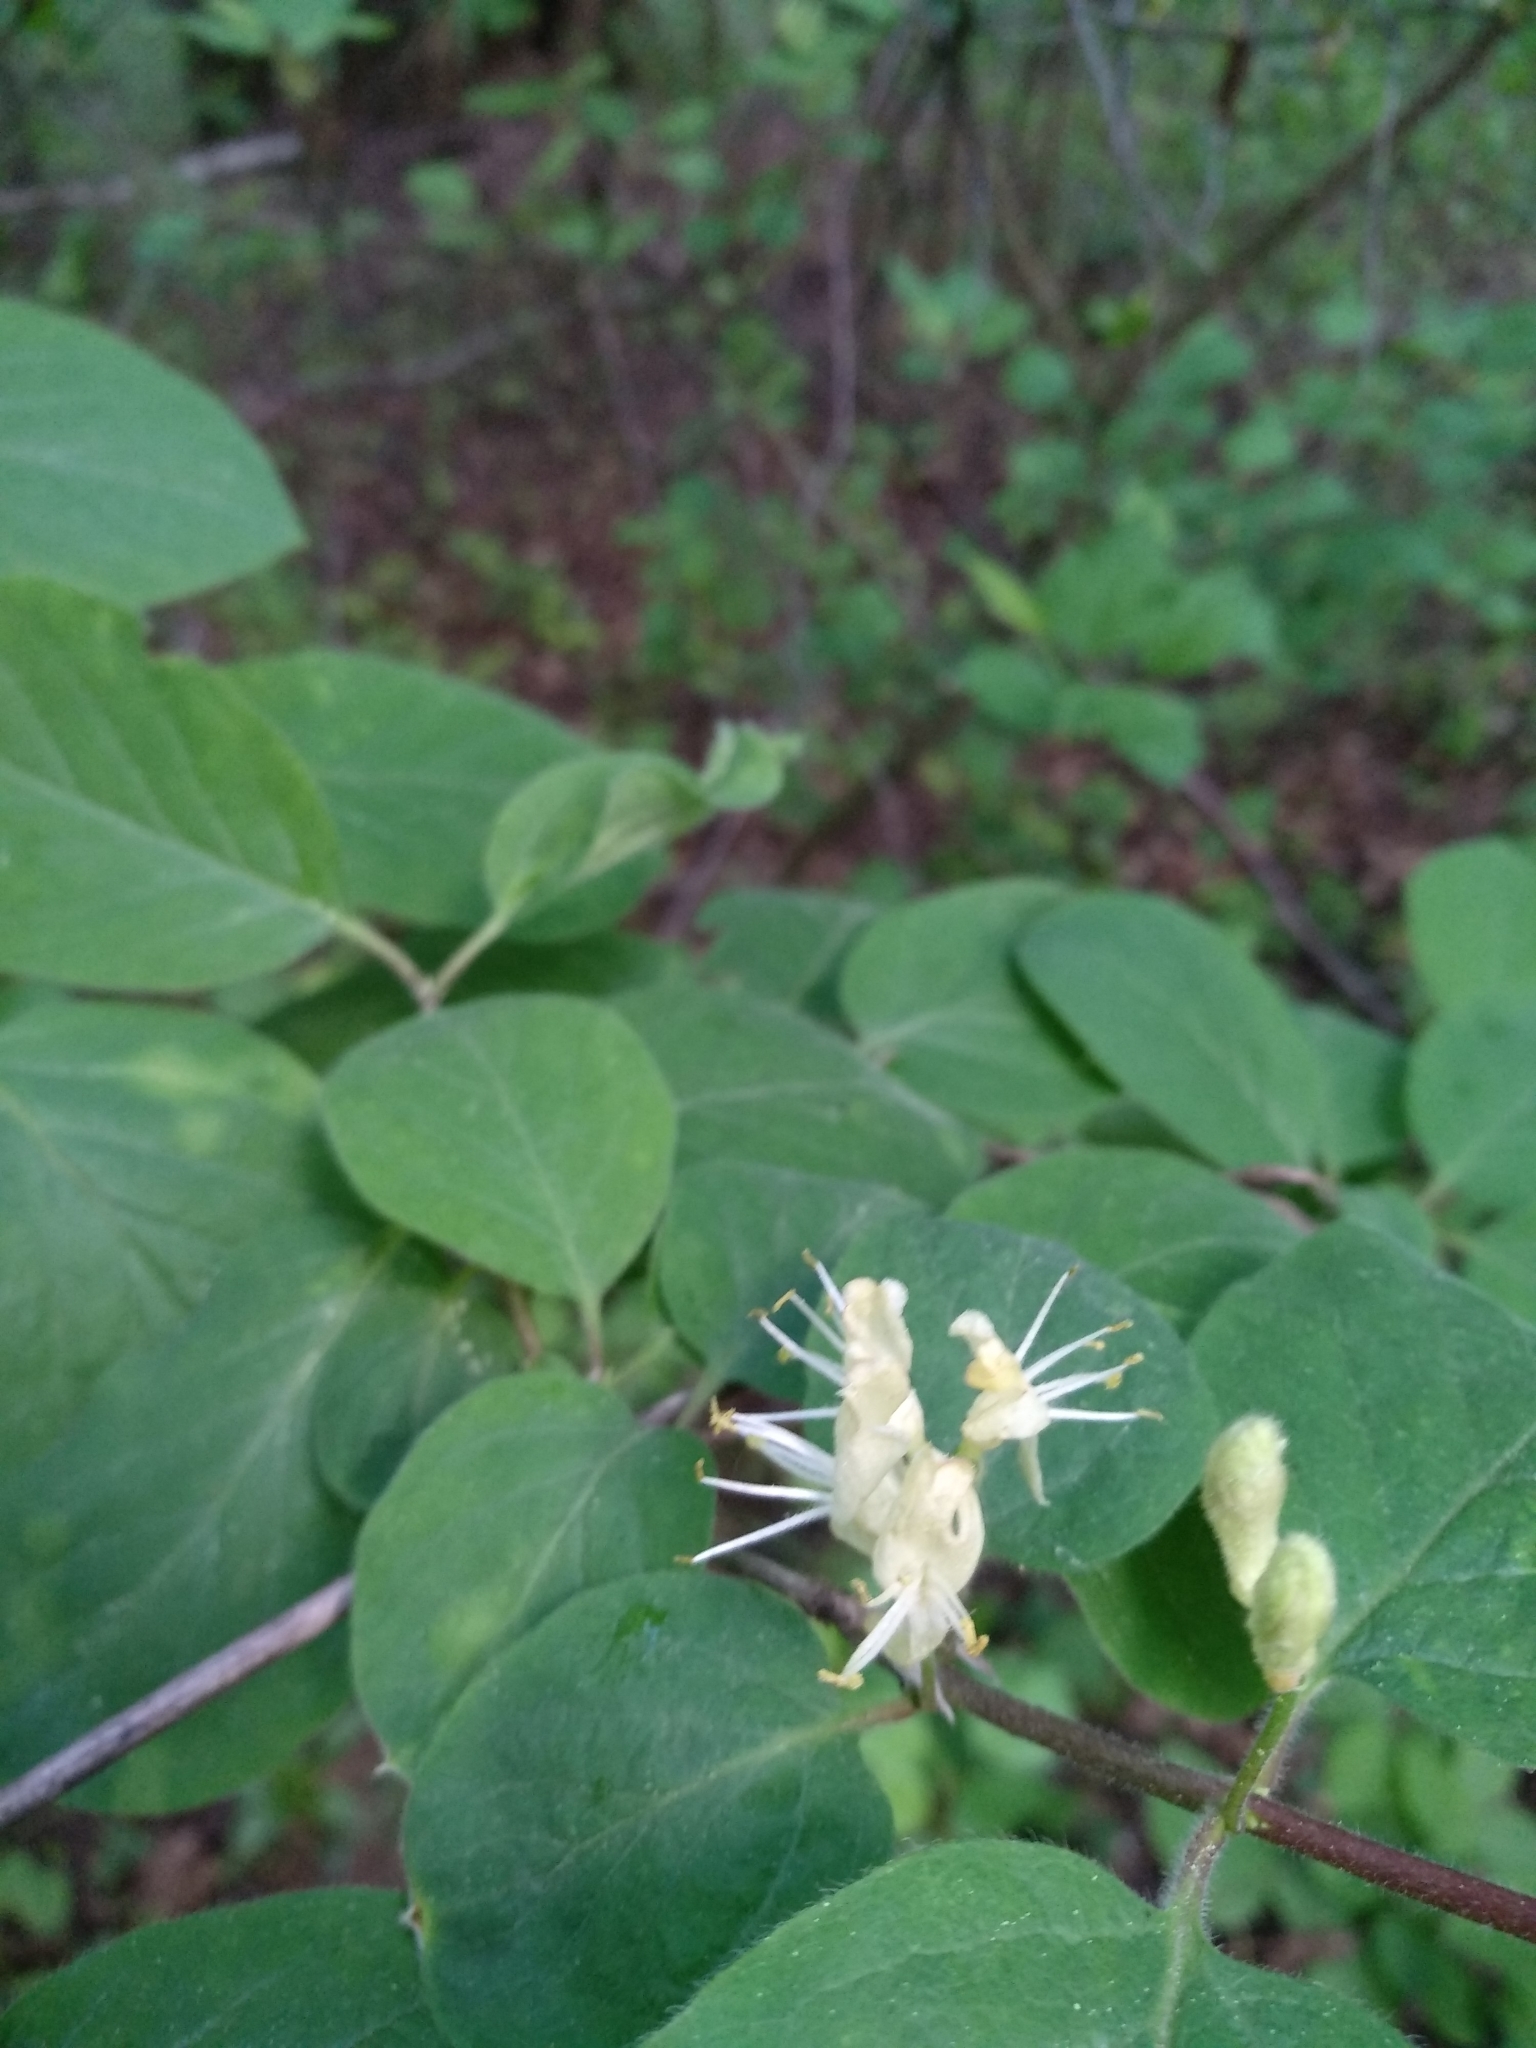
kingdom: Plantae
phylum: Tracheophyta
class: Magnoliopsida
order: Dipsacales
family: Caprifoliaceae
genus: Lonicera
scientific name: Lonicera xylosteum
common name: Fly honeysuckle
